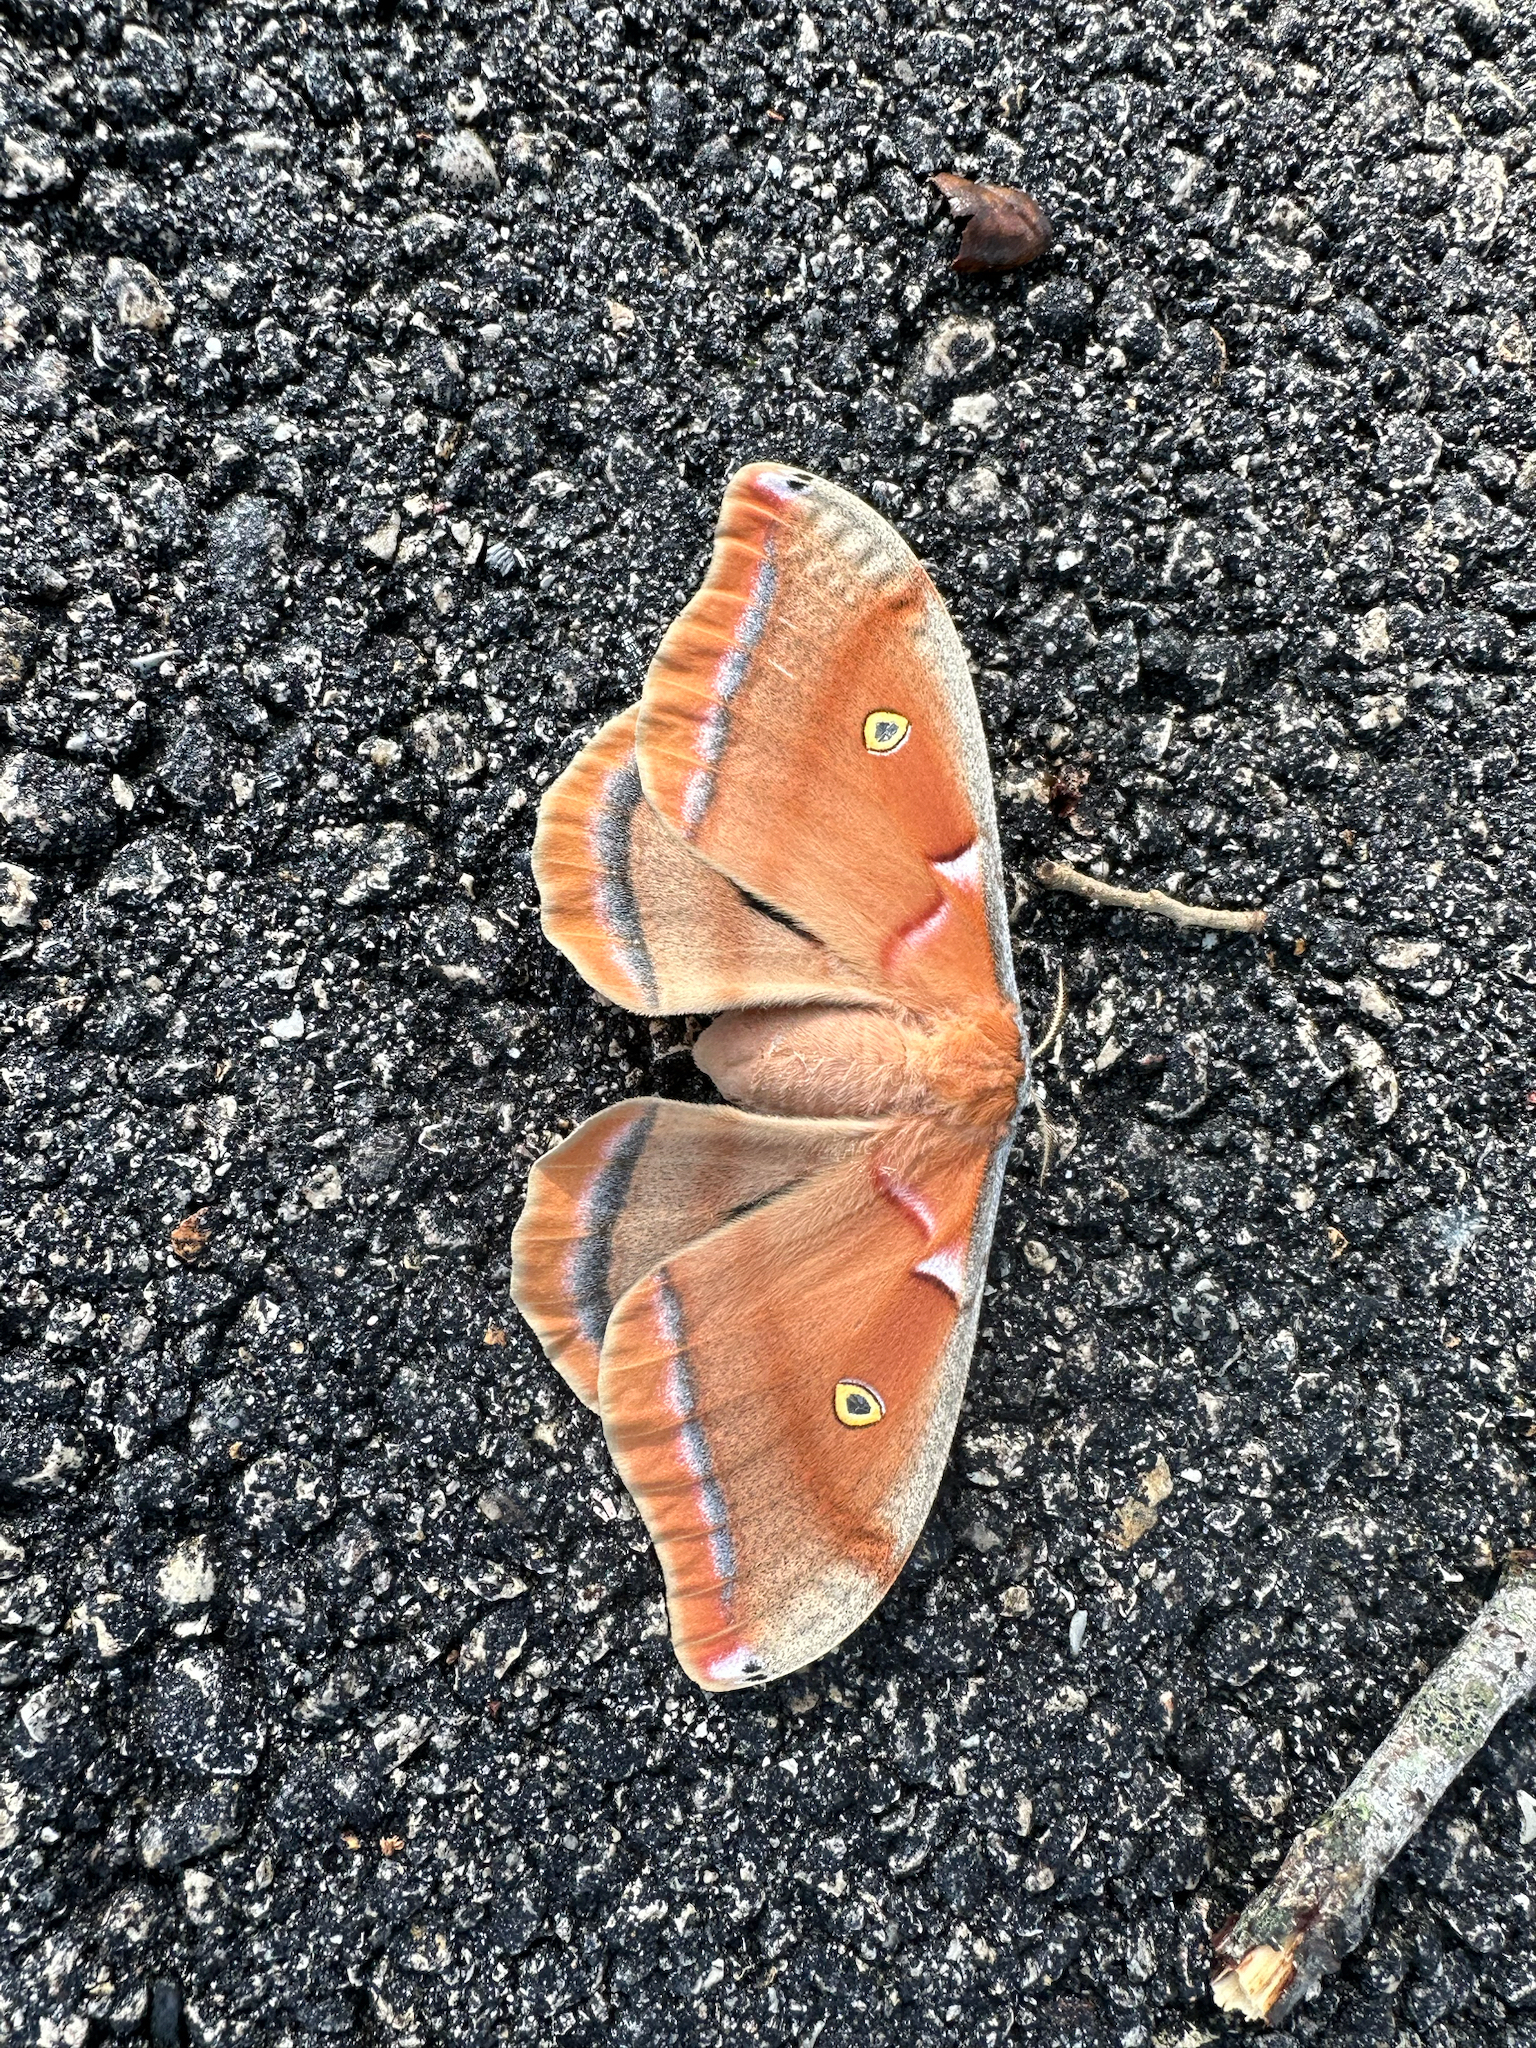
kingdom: Animalia
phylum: Arthropoda
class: Insecta
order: Lepidoptera
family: Saturniidae
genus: Antheraea
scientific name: Antheraea polyphemus
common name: Polyphemus moth
